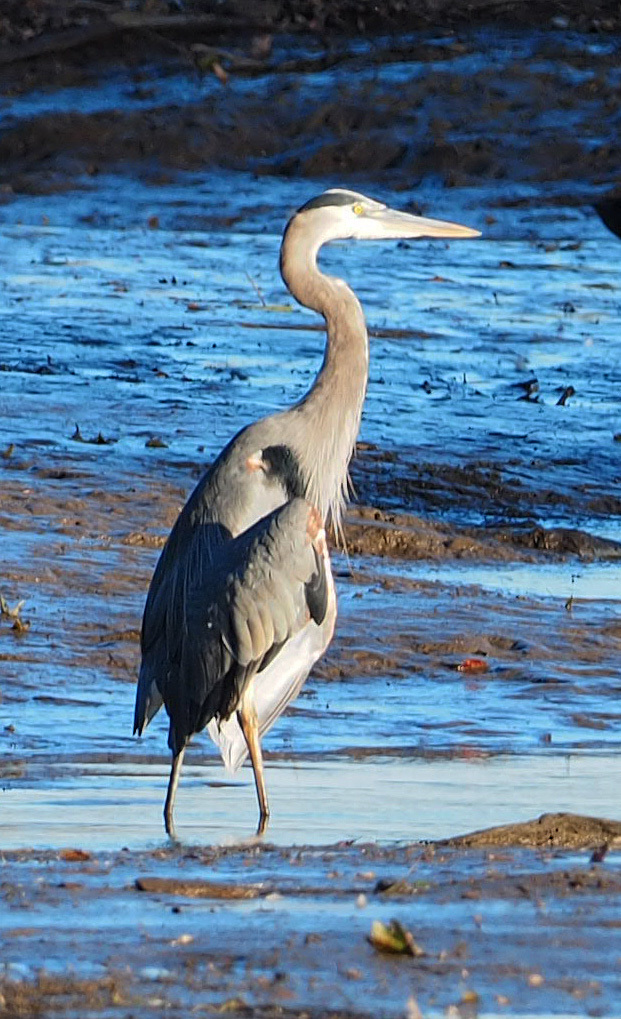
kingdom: Animalia
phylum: Chordata
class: Aves
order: Pelecaniformes
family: Ardeidae
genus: Ardea
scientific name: Ardea herodias
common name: Great blue heron
